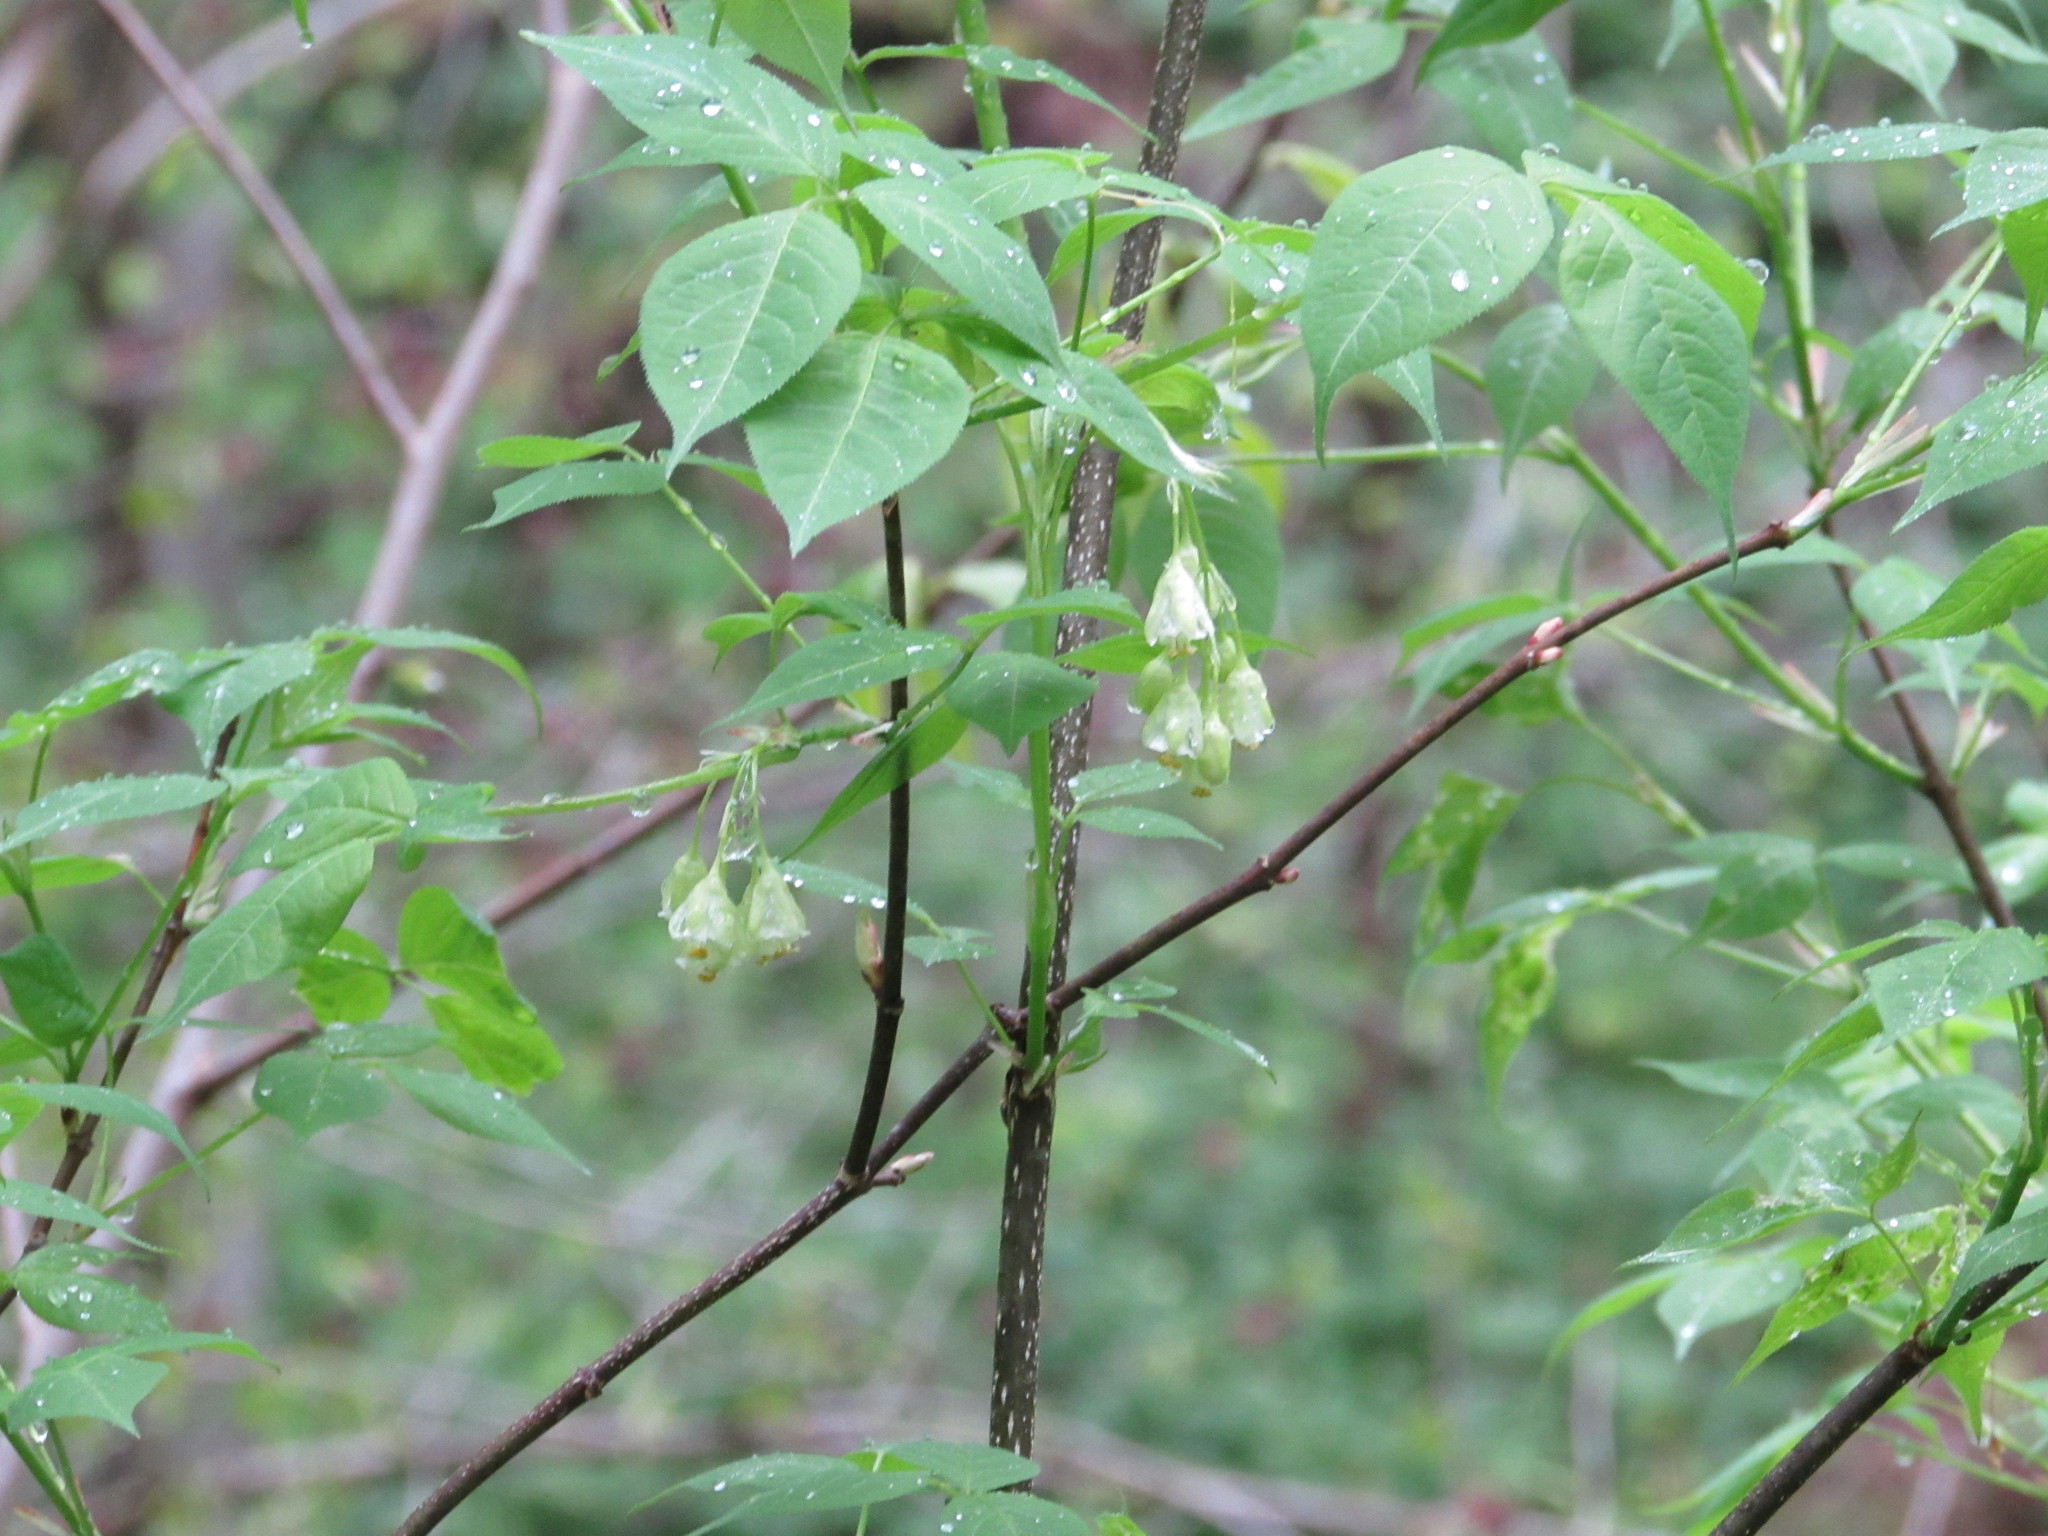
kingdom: Plantae
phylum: Tracheophyta
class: Magnoliopsida
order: Crossosomatales
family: Staphyleaceae
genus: Staphylea
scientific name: Staphylea trifolia
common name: American bladdernut
